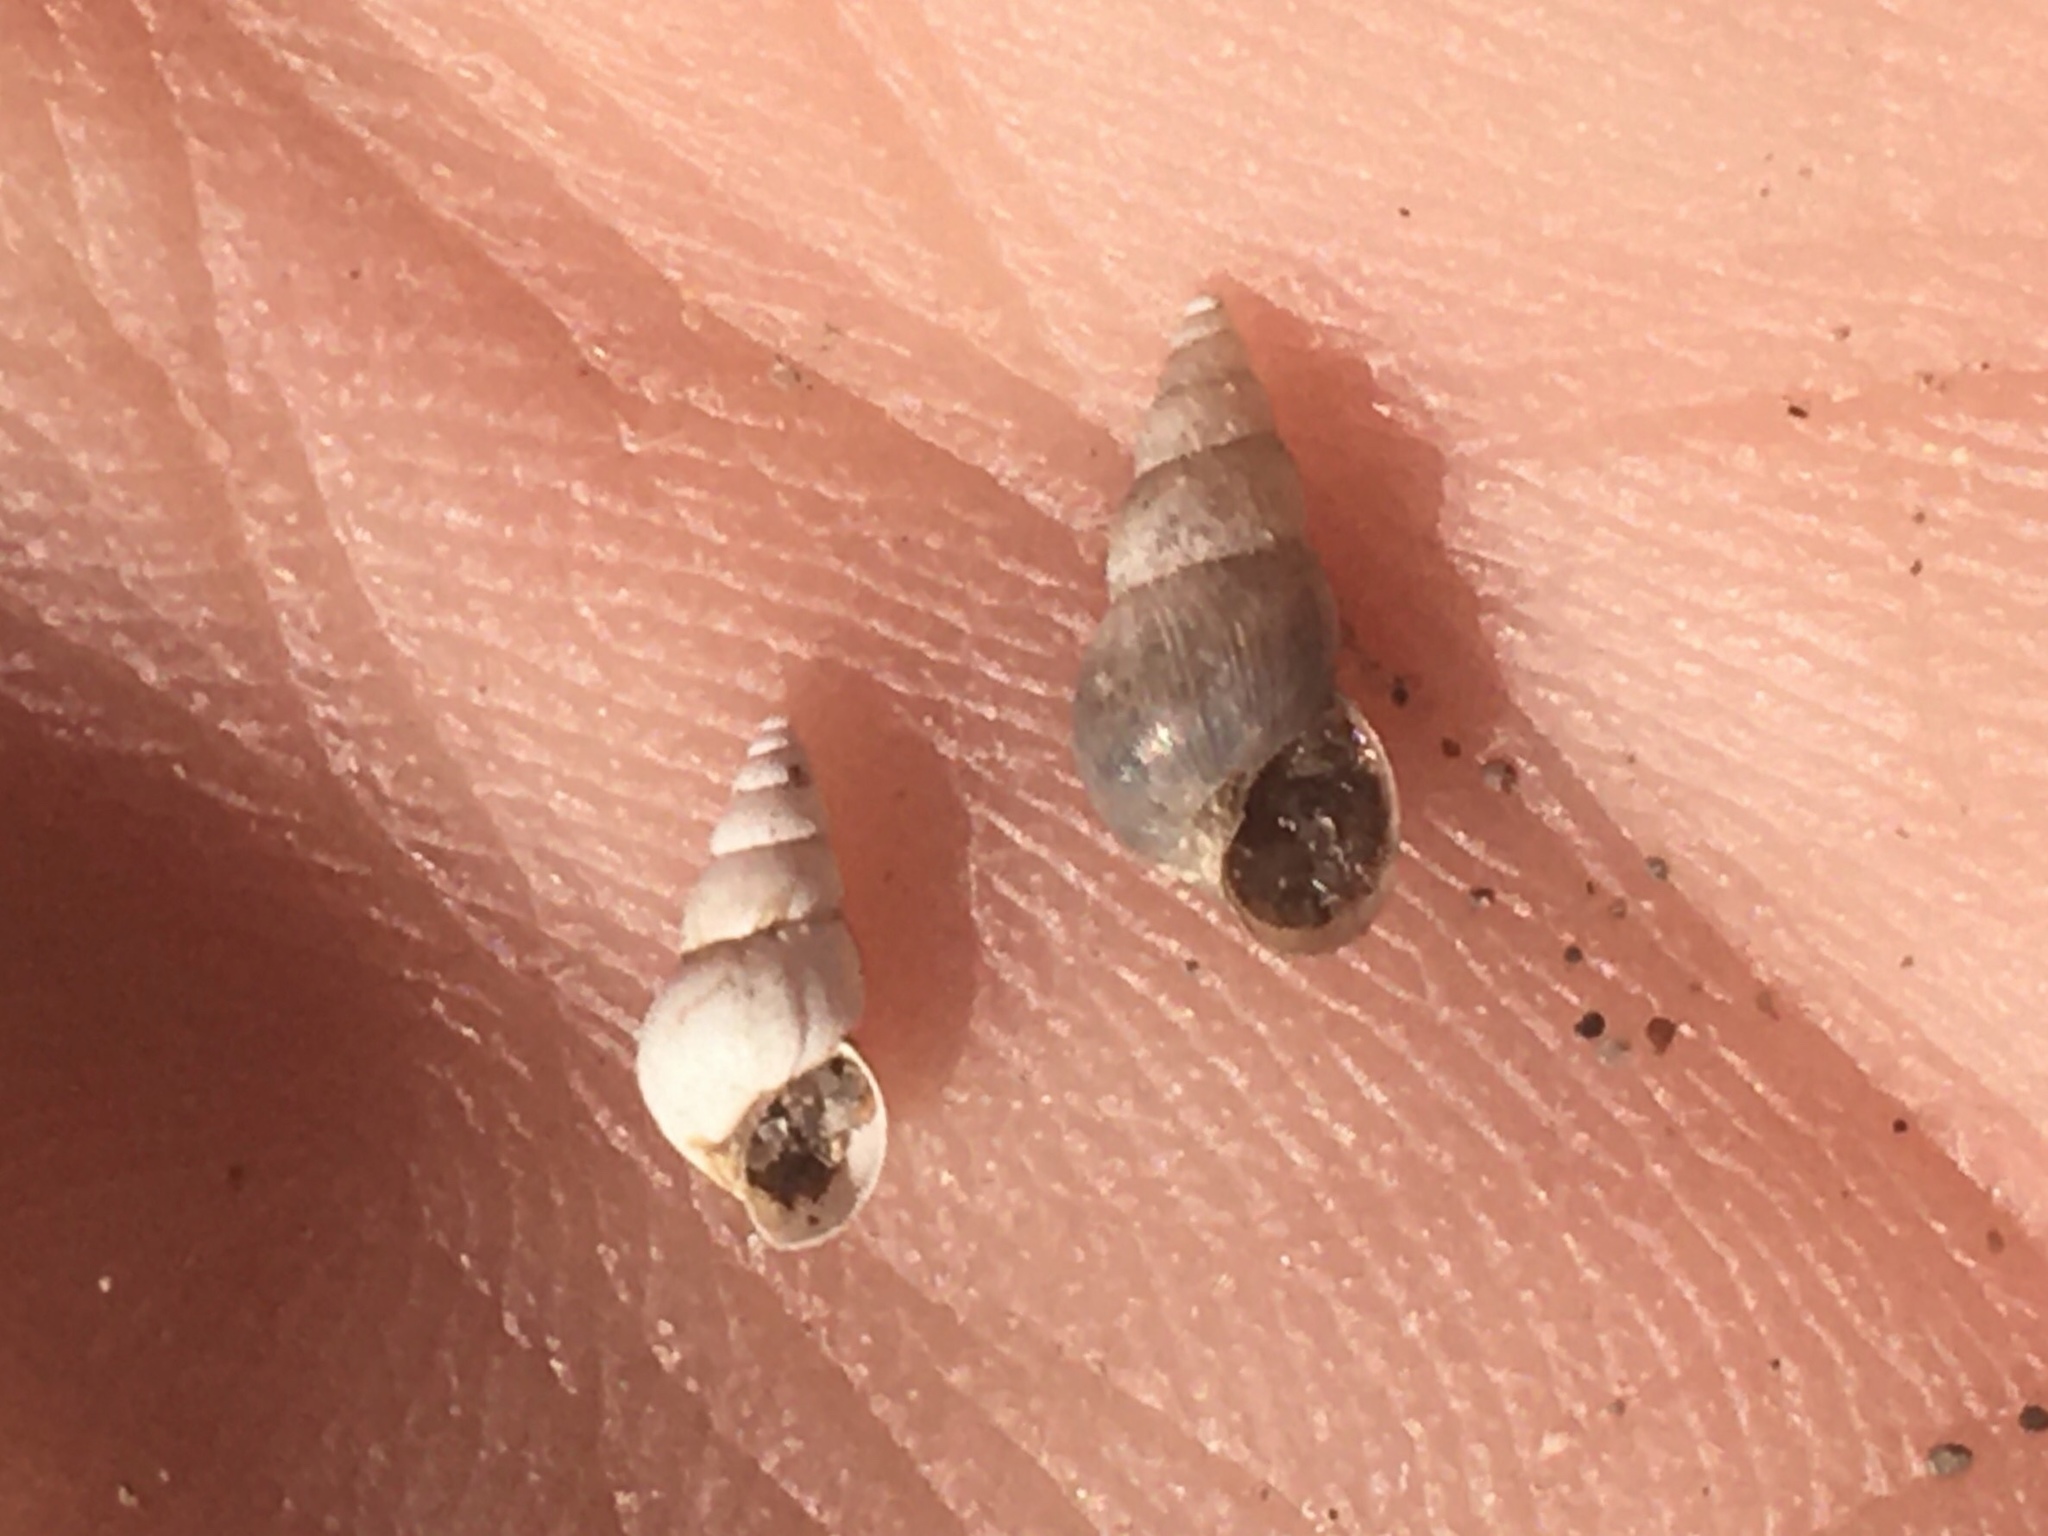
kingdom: Animalia
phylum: Mollusca
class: Gastropoda
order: Littorinimorpha
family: Cochliopidae
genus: Heleobia
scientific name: Heleobia parchappii
